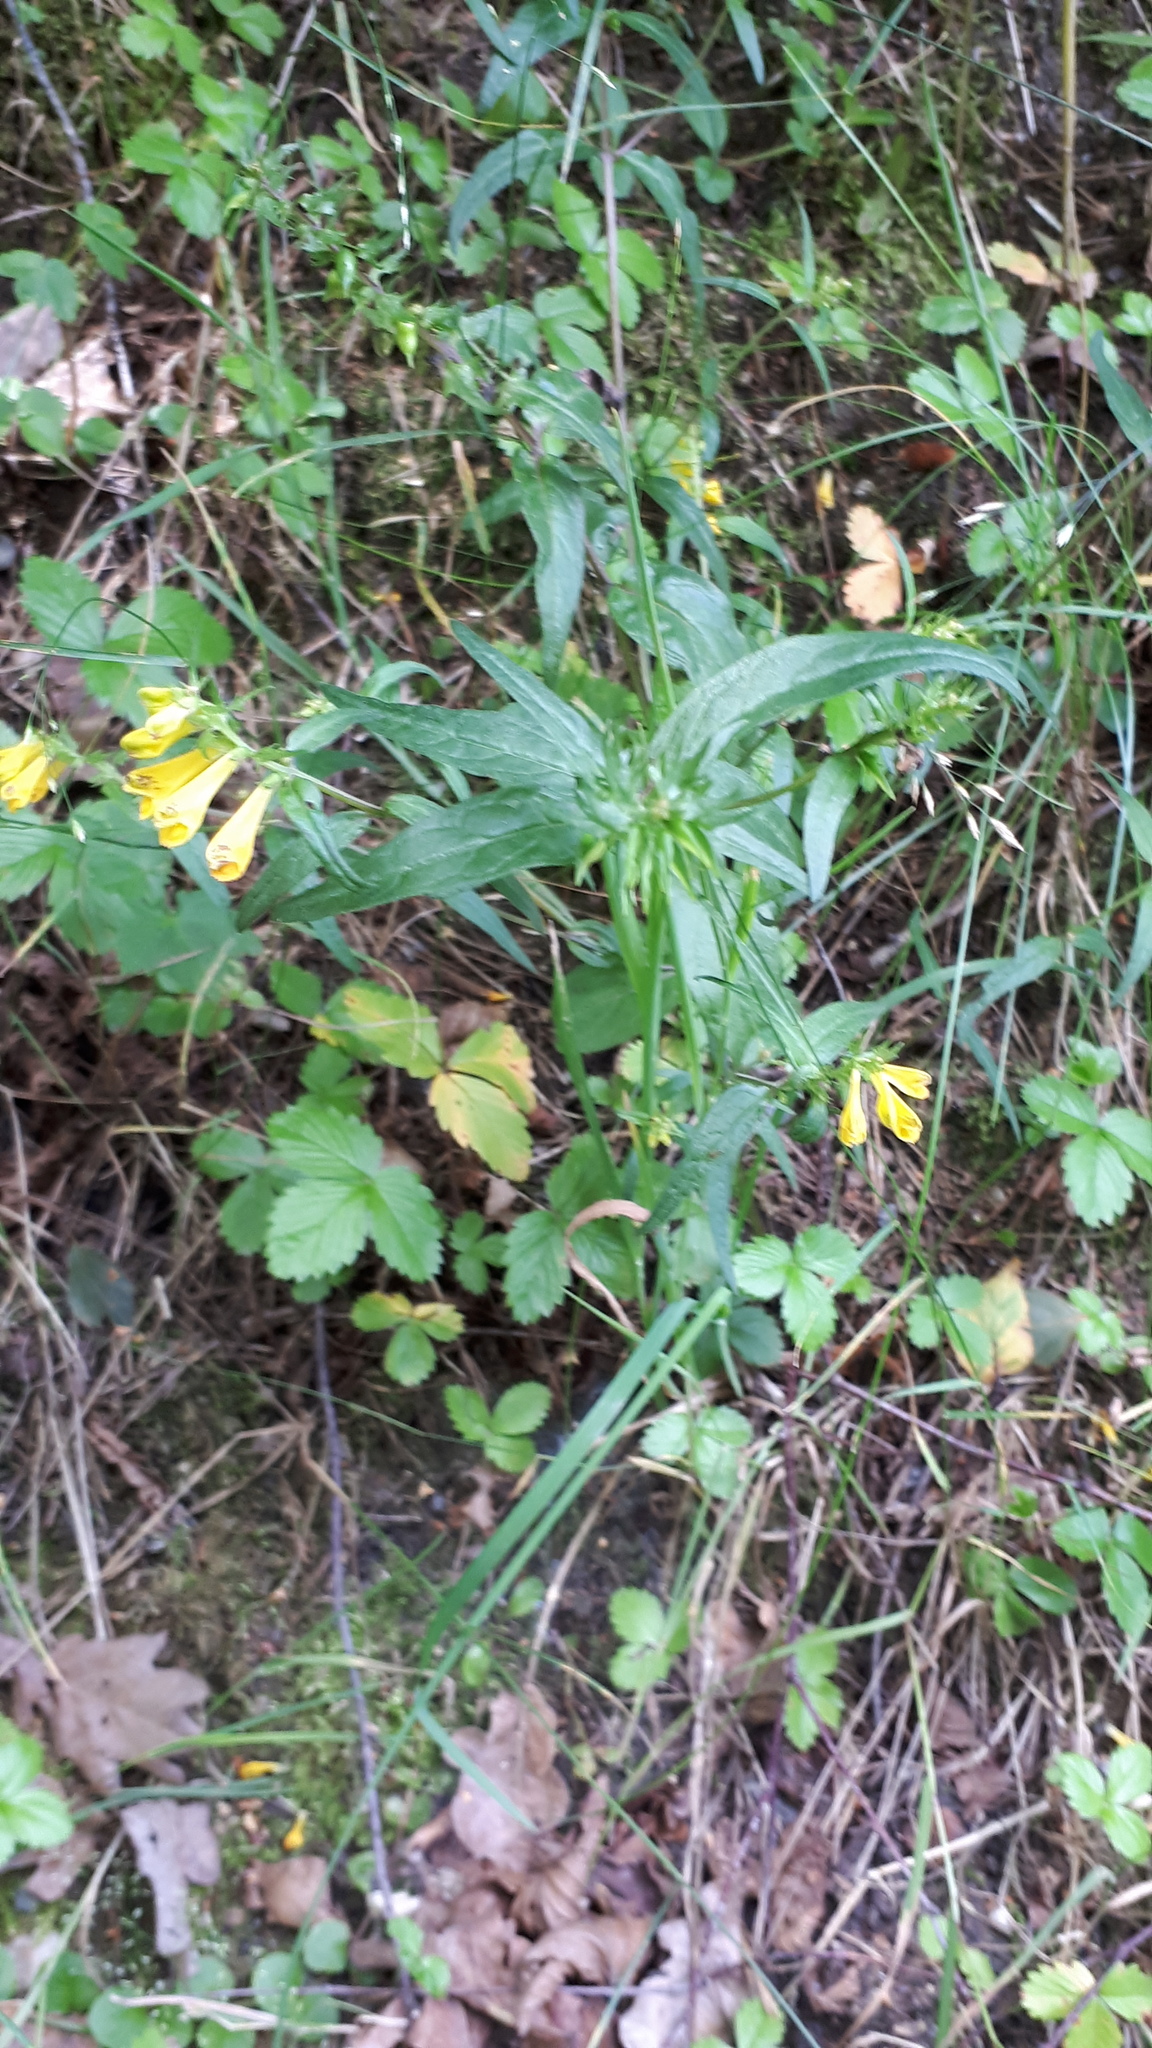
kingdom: Plantae
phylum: Tracheophyta
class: Magnoliopsida
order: Lamiales
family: Orobanchaceae
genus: Melampyrum
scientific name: Melampyrum pratense
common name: Common cow-wheat
